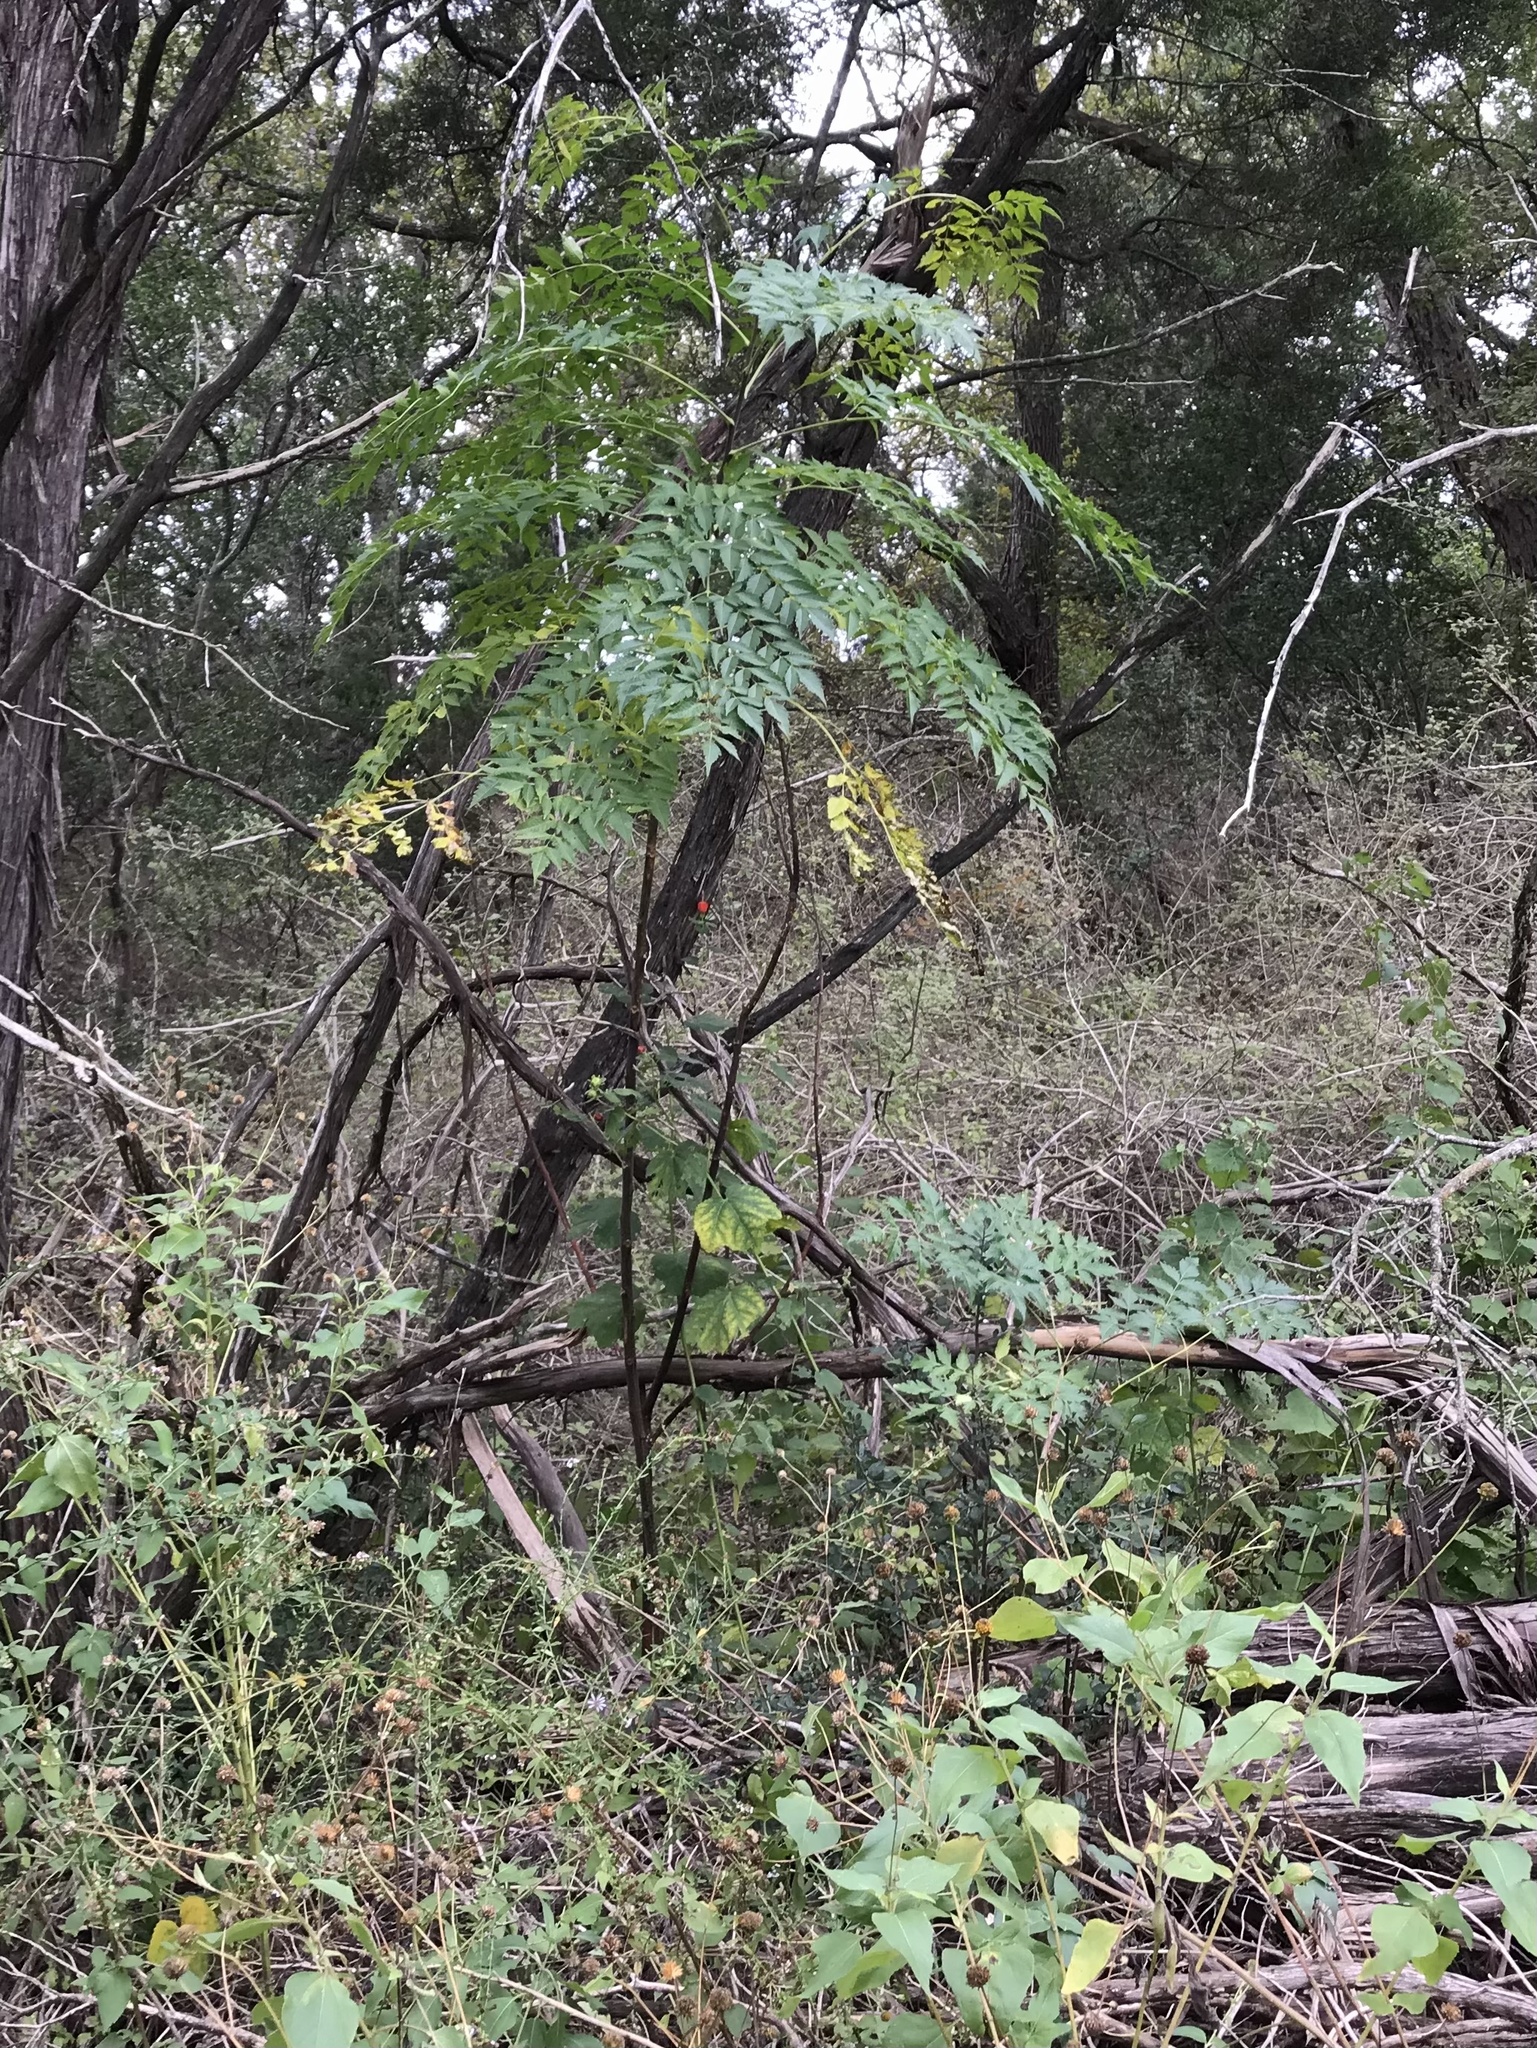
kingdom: Plantae
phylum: Tracheophyta
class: Magnoliopsida
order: Sapindales
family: Meliaceae
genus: Melia
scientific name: Melia azedarach
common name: Chinaberrytree
